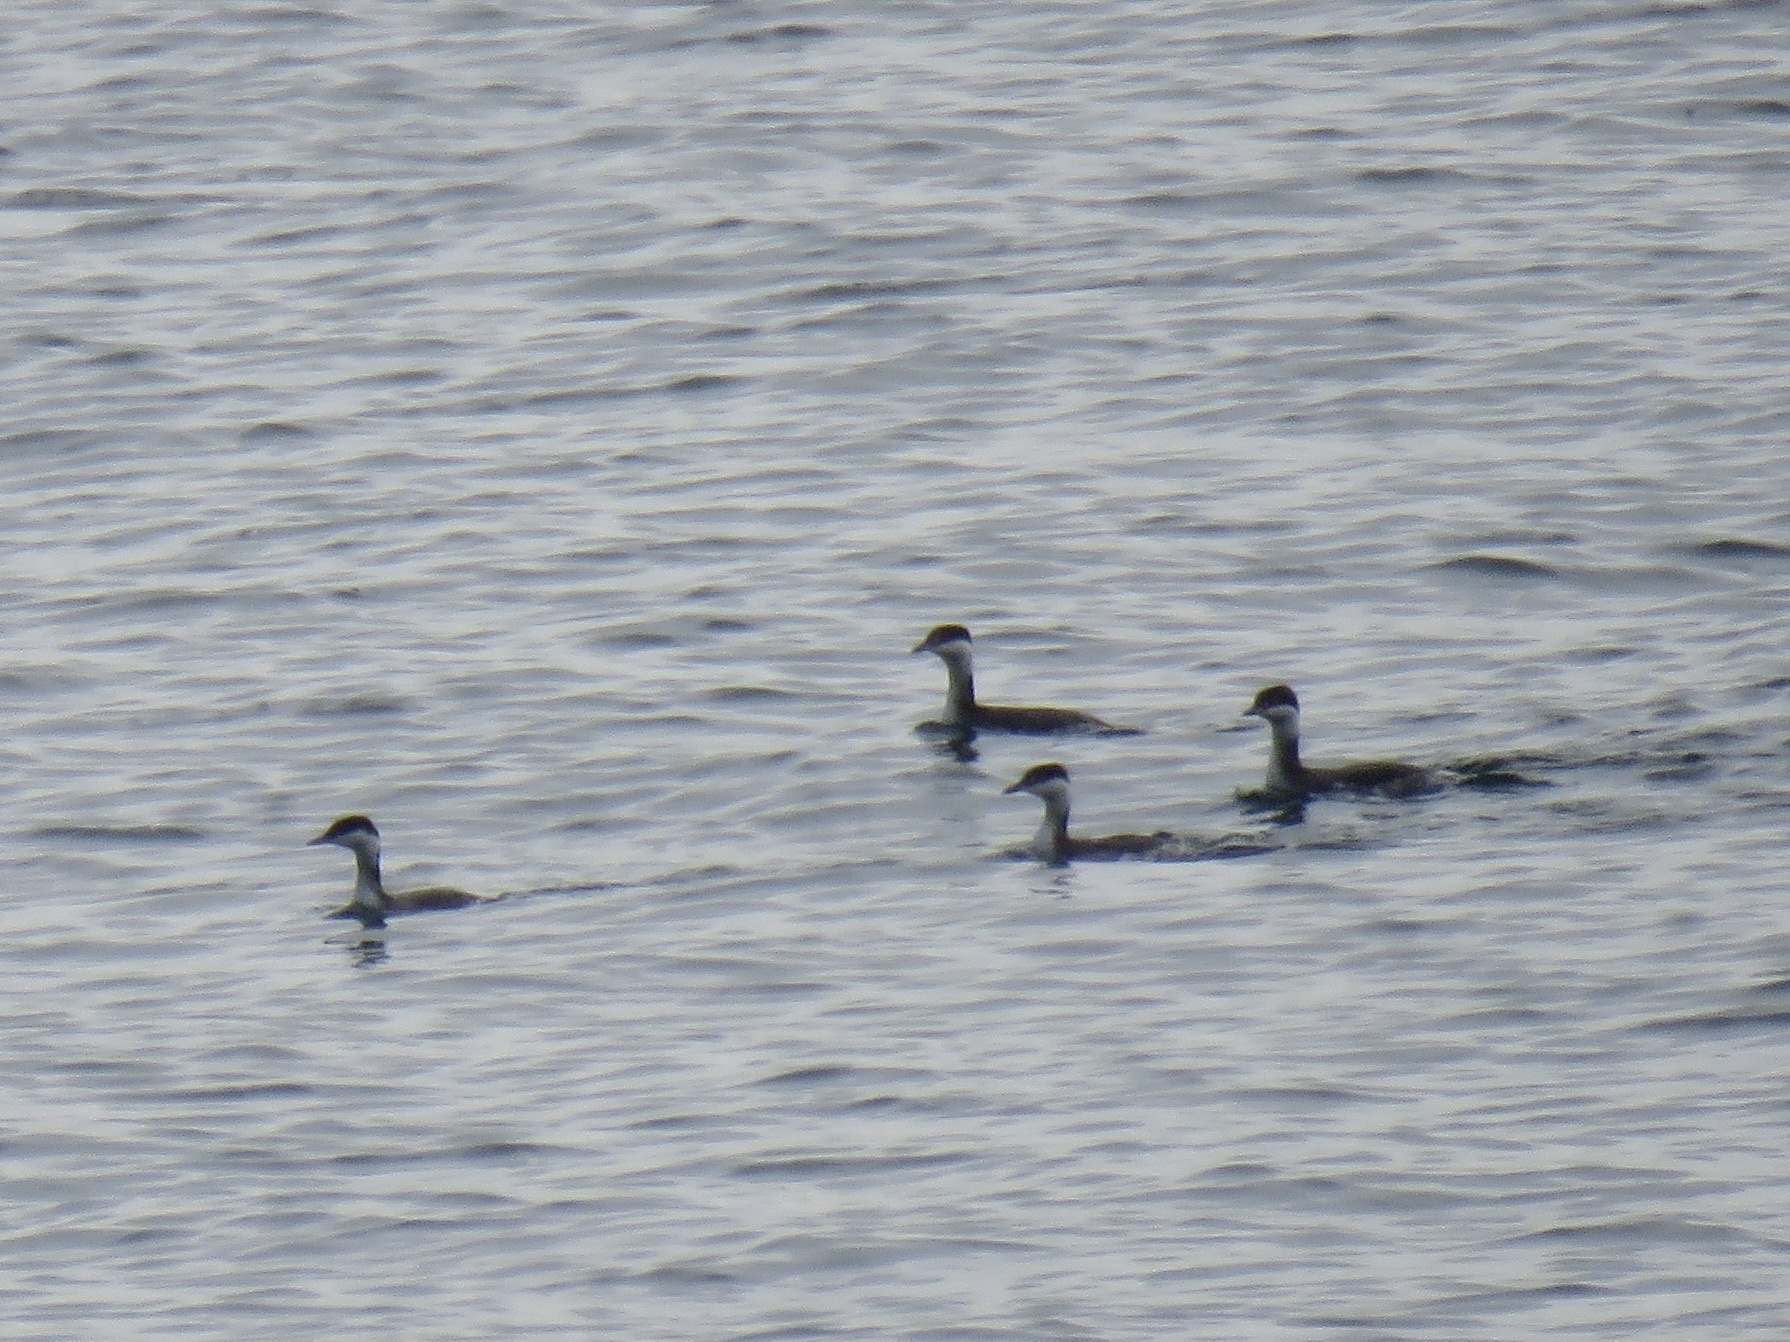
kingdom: Animalia
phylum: Chordata
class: Aves
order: Podicipediformes
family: Podicipedidae
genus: Podiceps
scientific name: Podiceps auritus
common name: Horned grebe
